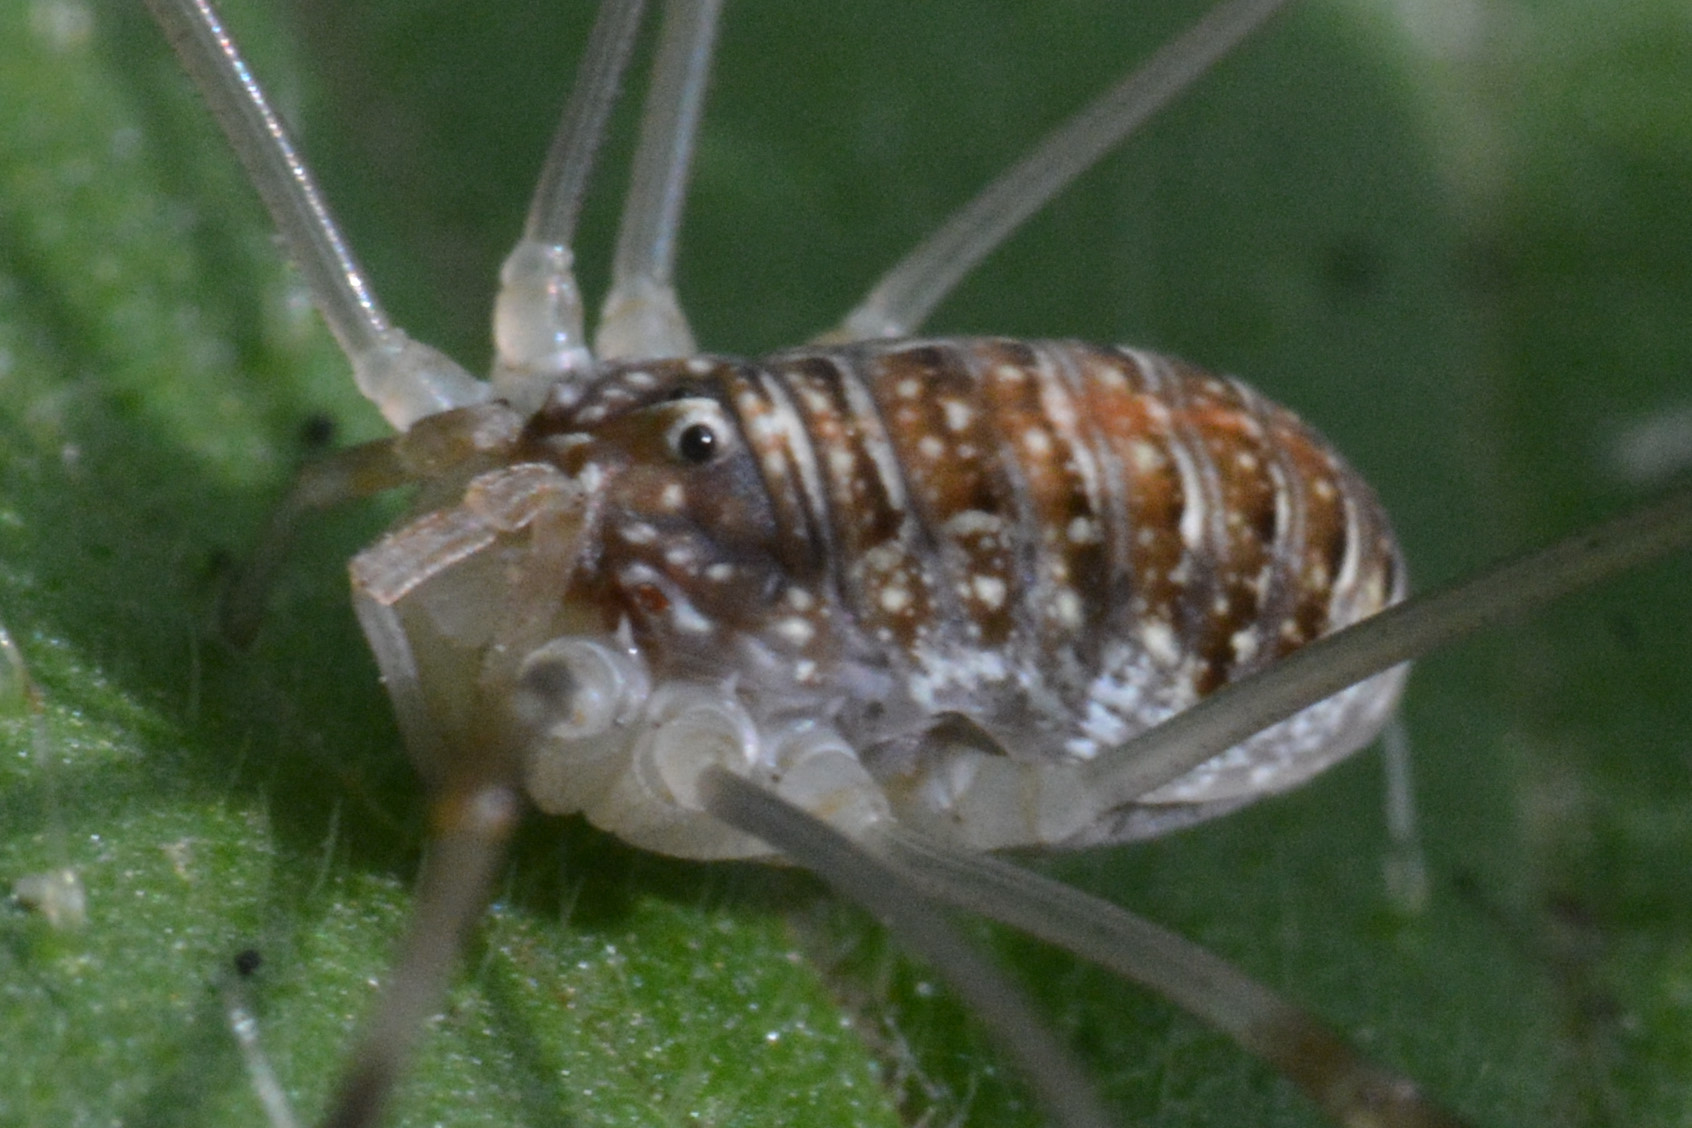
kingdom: Animalia
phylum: Arthropoda
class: Arachnida
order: Opiliones
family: Phalangiidae
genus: Opilio
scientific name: Opilio canestrinii
